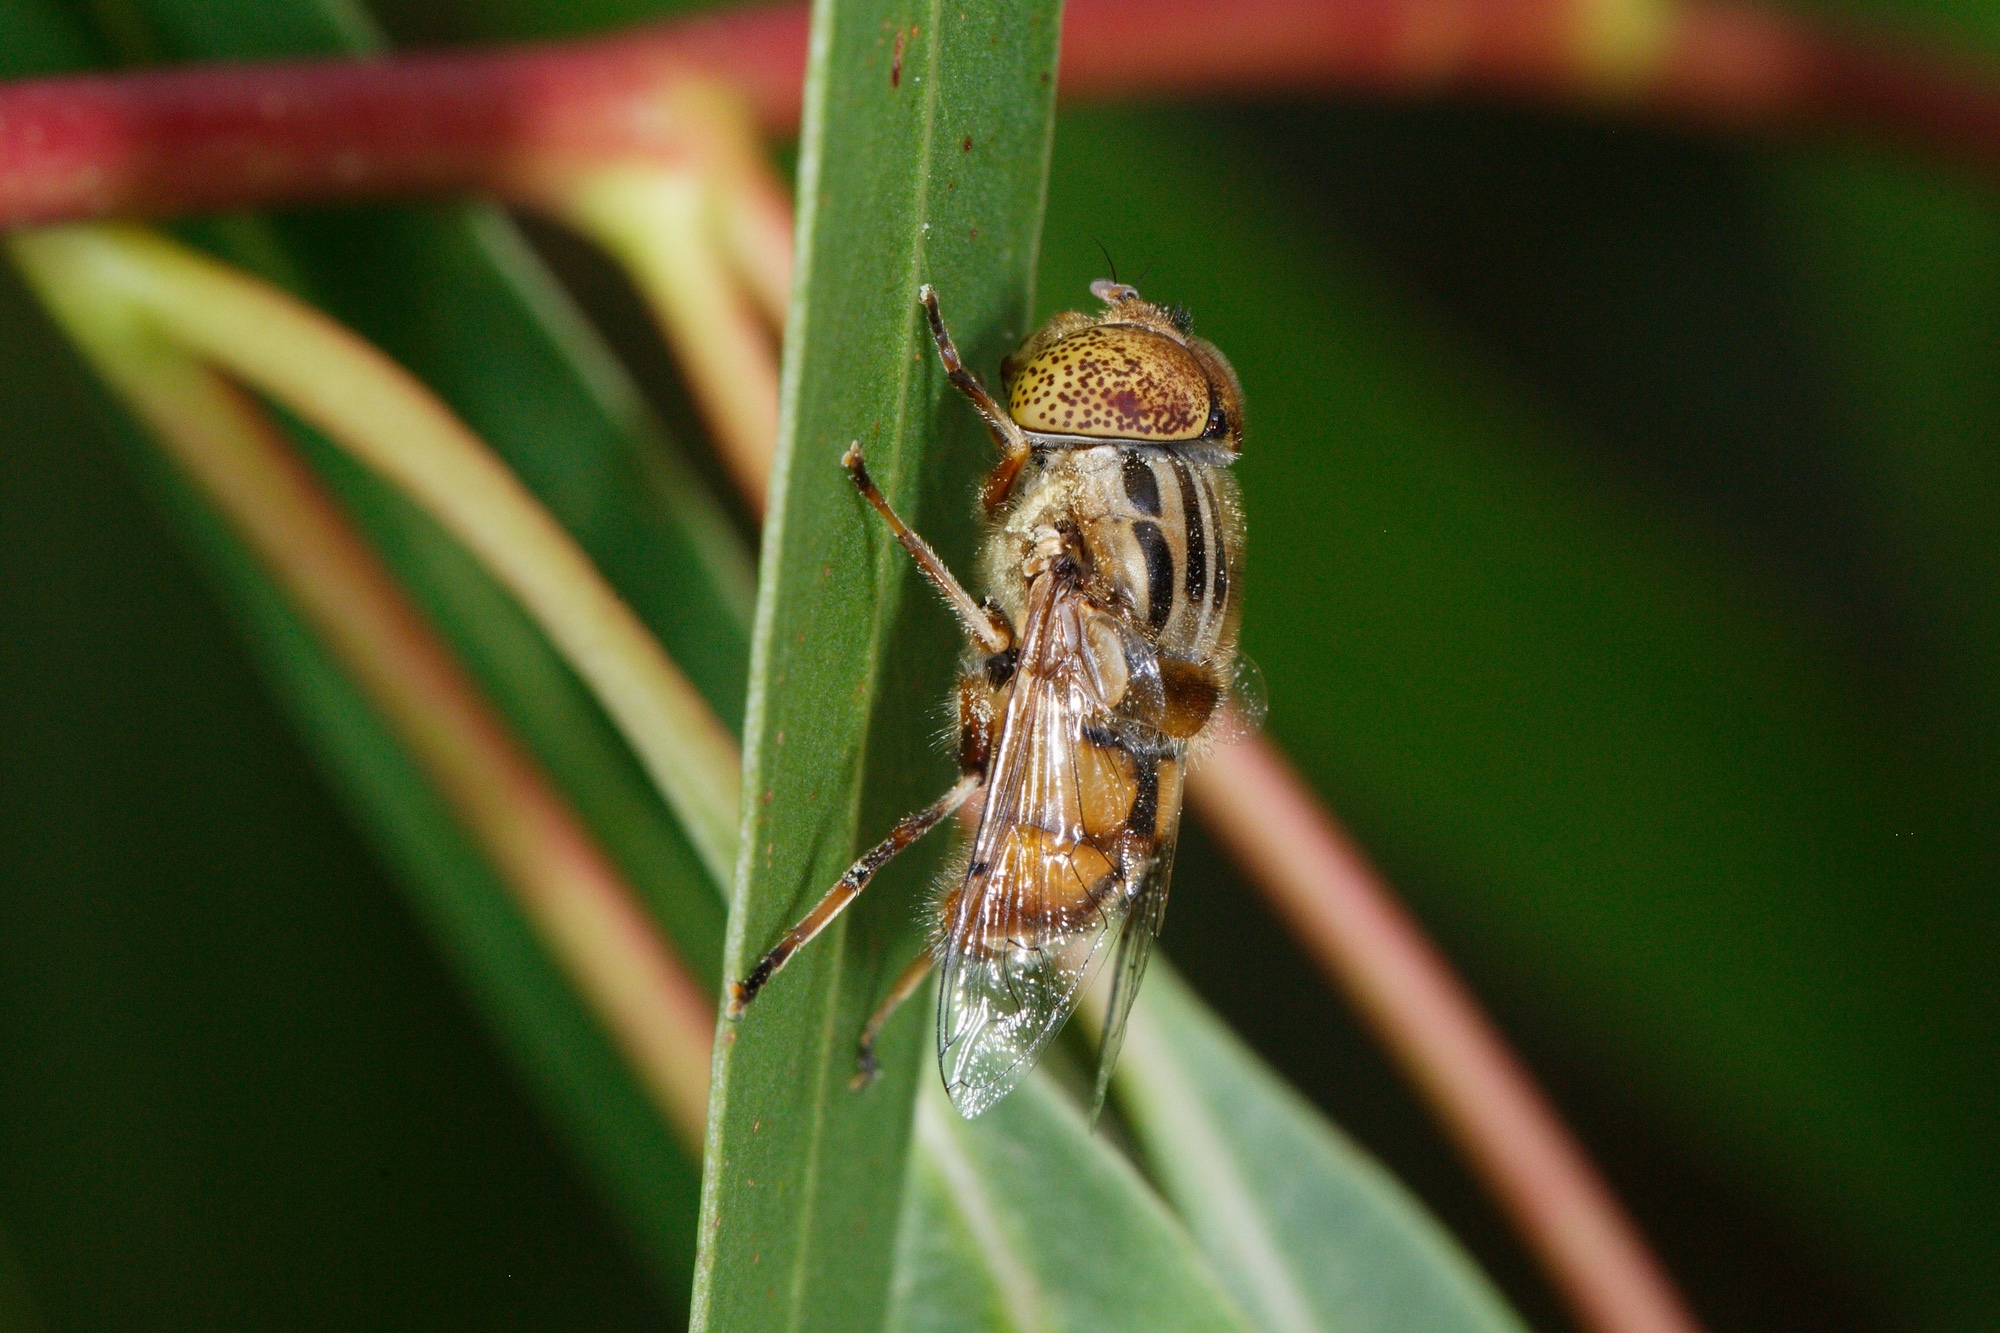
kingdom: Animalia
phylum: Arthropoda
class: Insecta
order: Diptera
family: Syrphidae
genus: Eristalinus
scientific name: Eristalinus punctulatus
